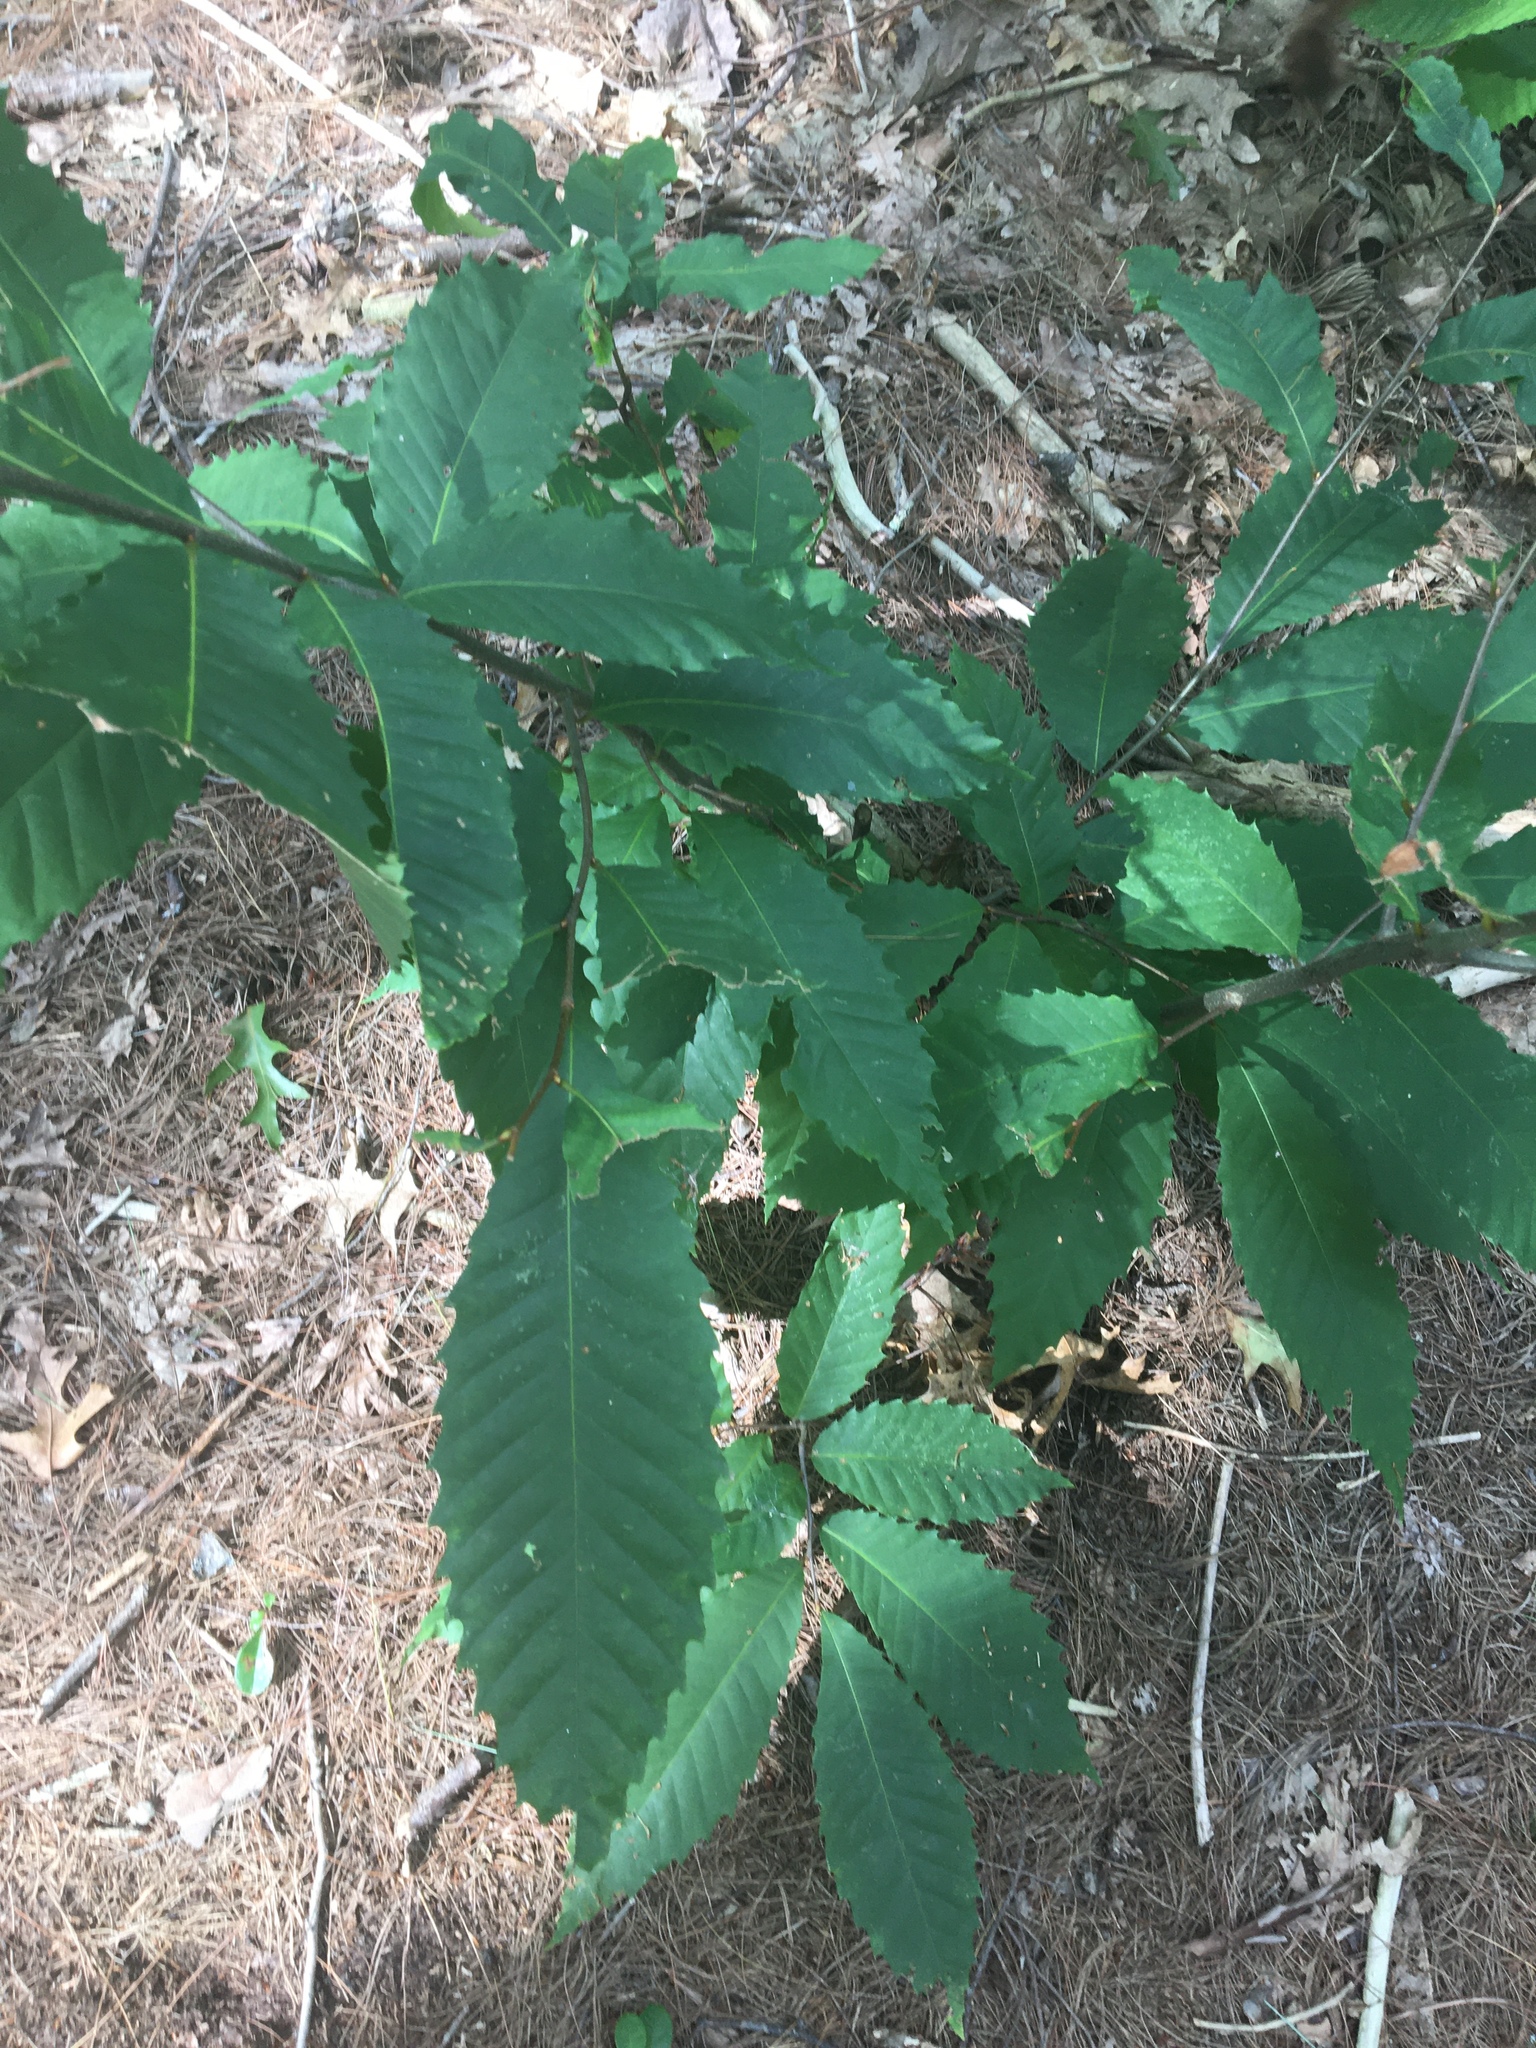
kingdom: Plantae
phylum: Tracheophyta
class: Magnoliopsida
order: Fagales
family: Fagaceae
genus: Castanea
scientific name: Castanea dentata
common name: American chestnut
